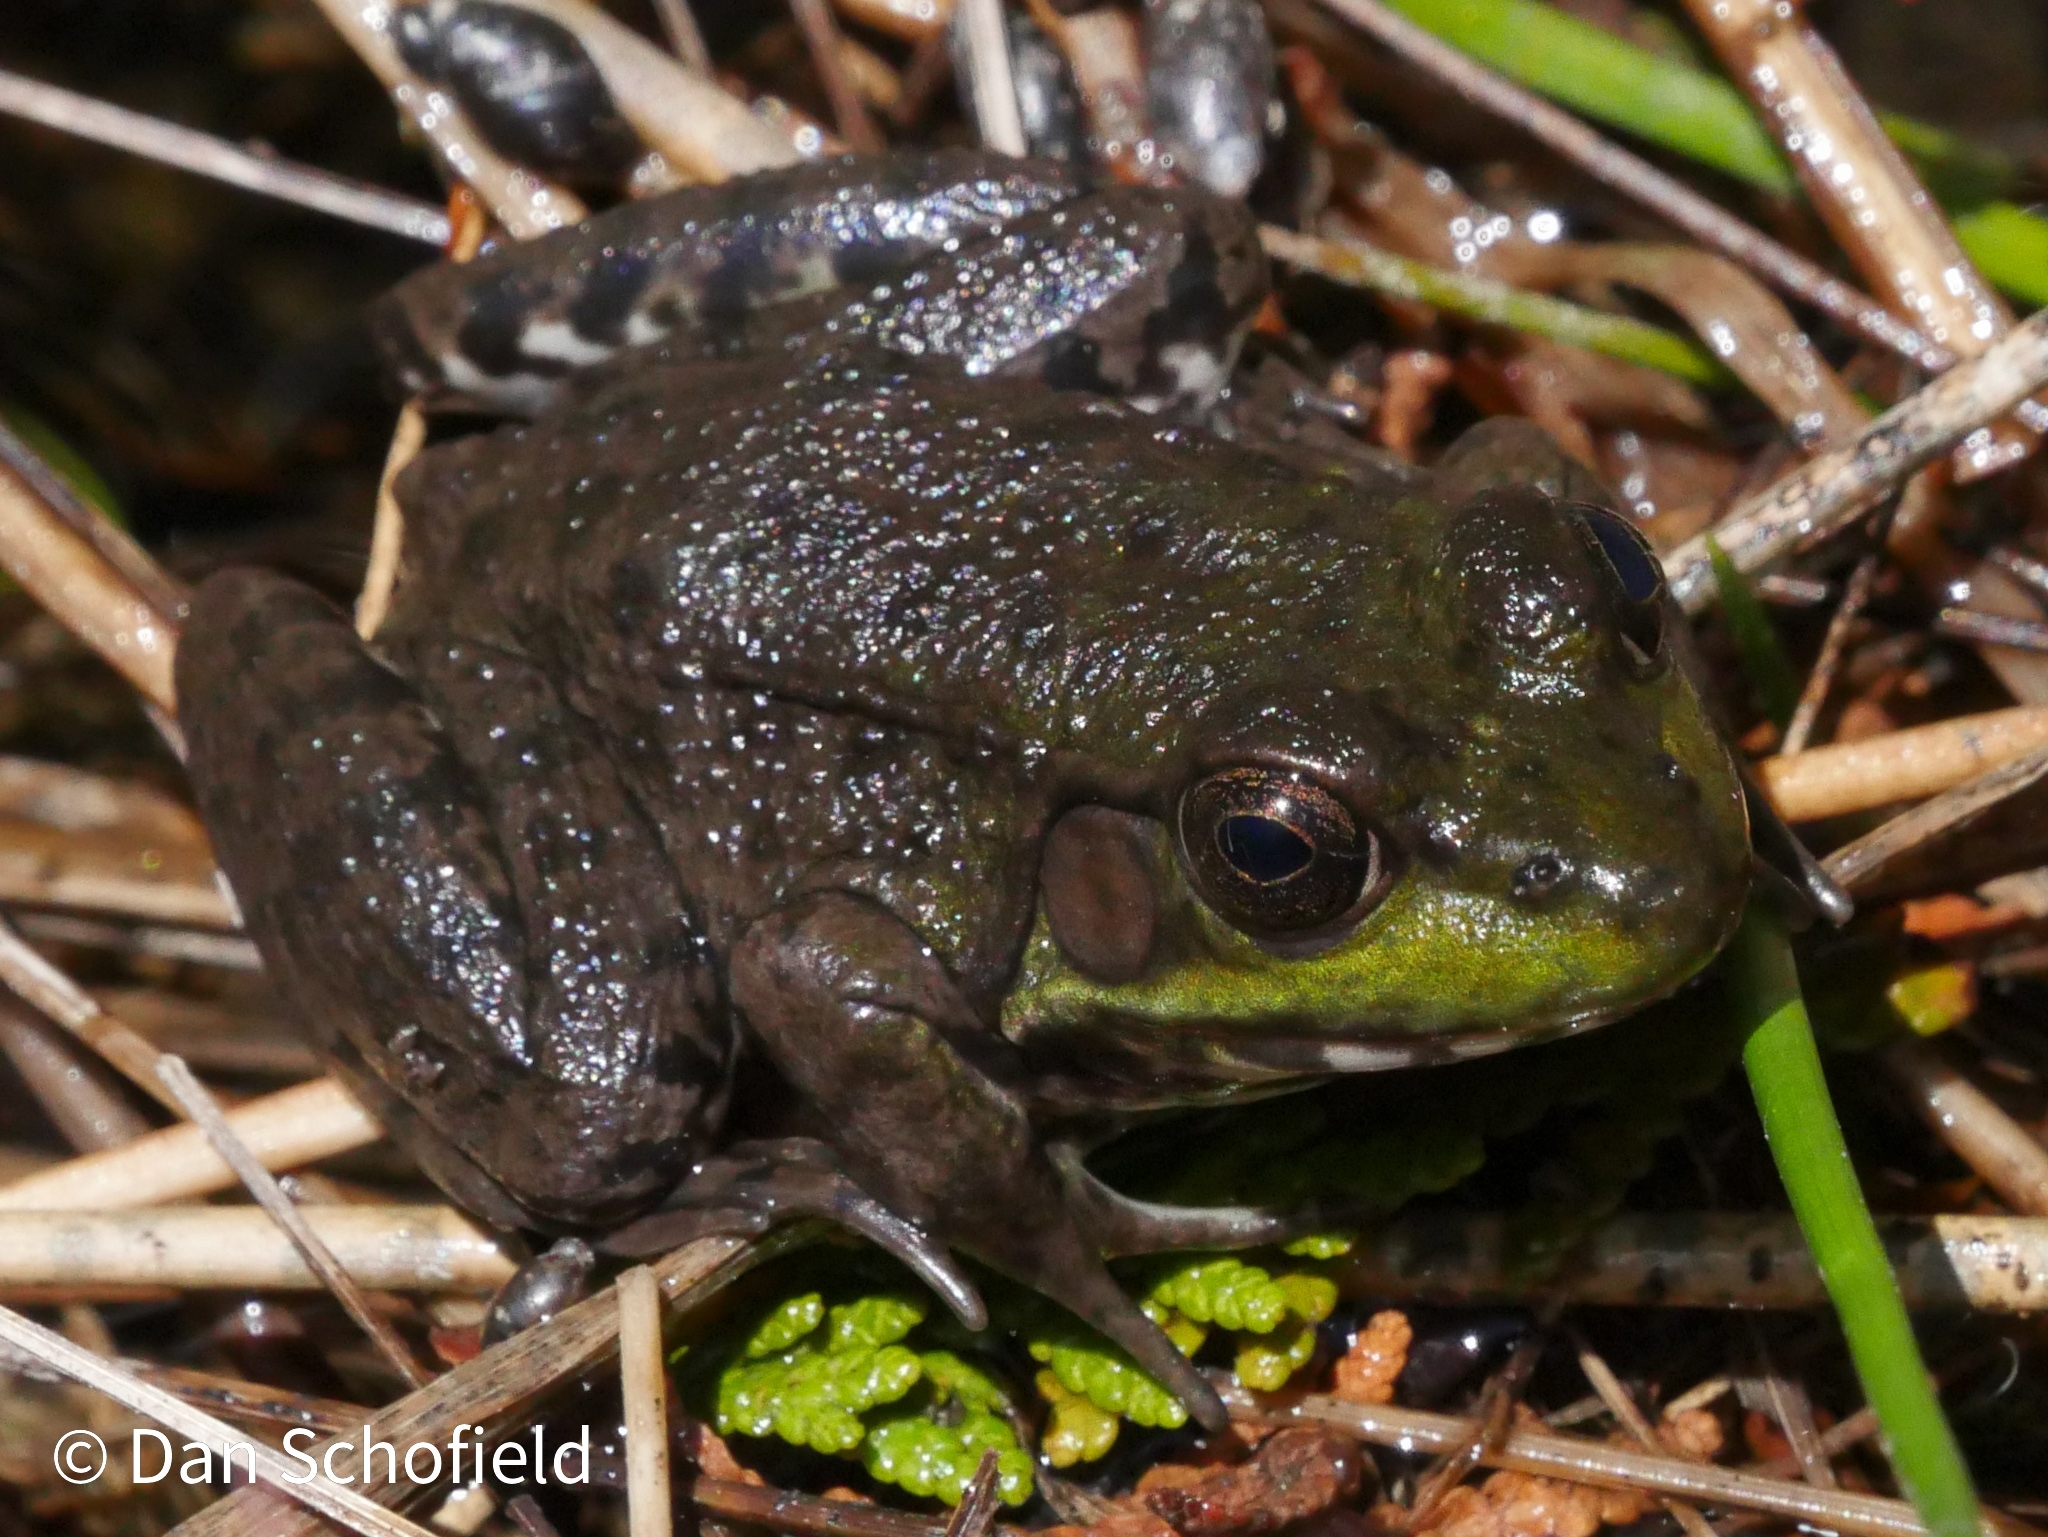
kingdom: Animalia
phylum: Chordata
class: Amphibia
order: Anura
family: Ranidae
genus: Lithobates
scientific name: Lithobates clamitans
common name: Green frog
